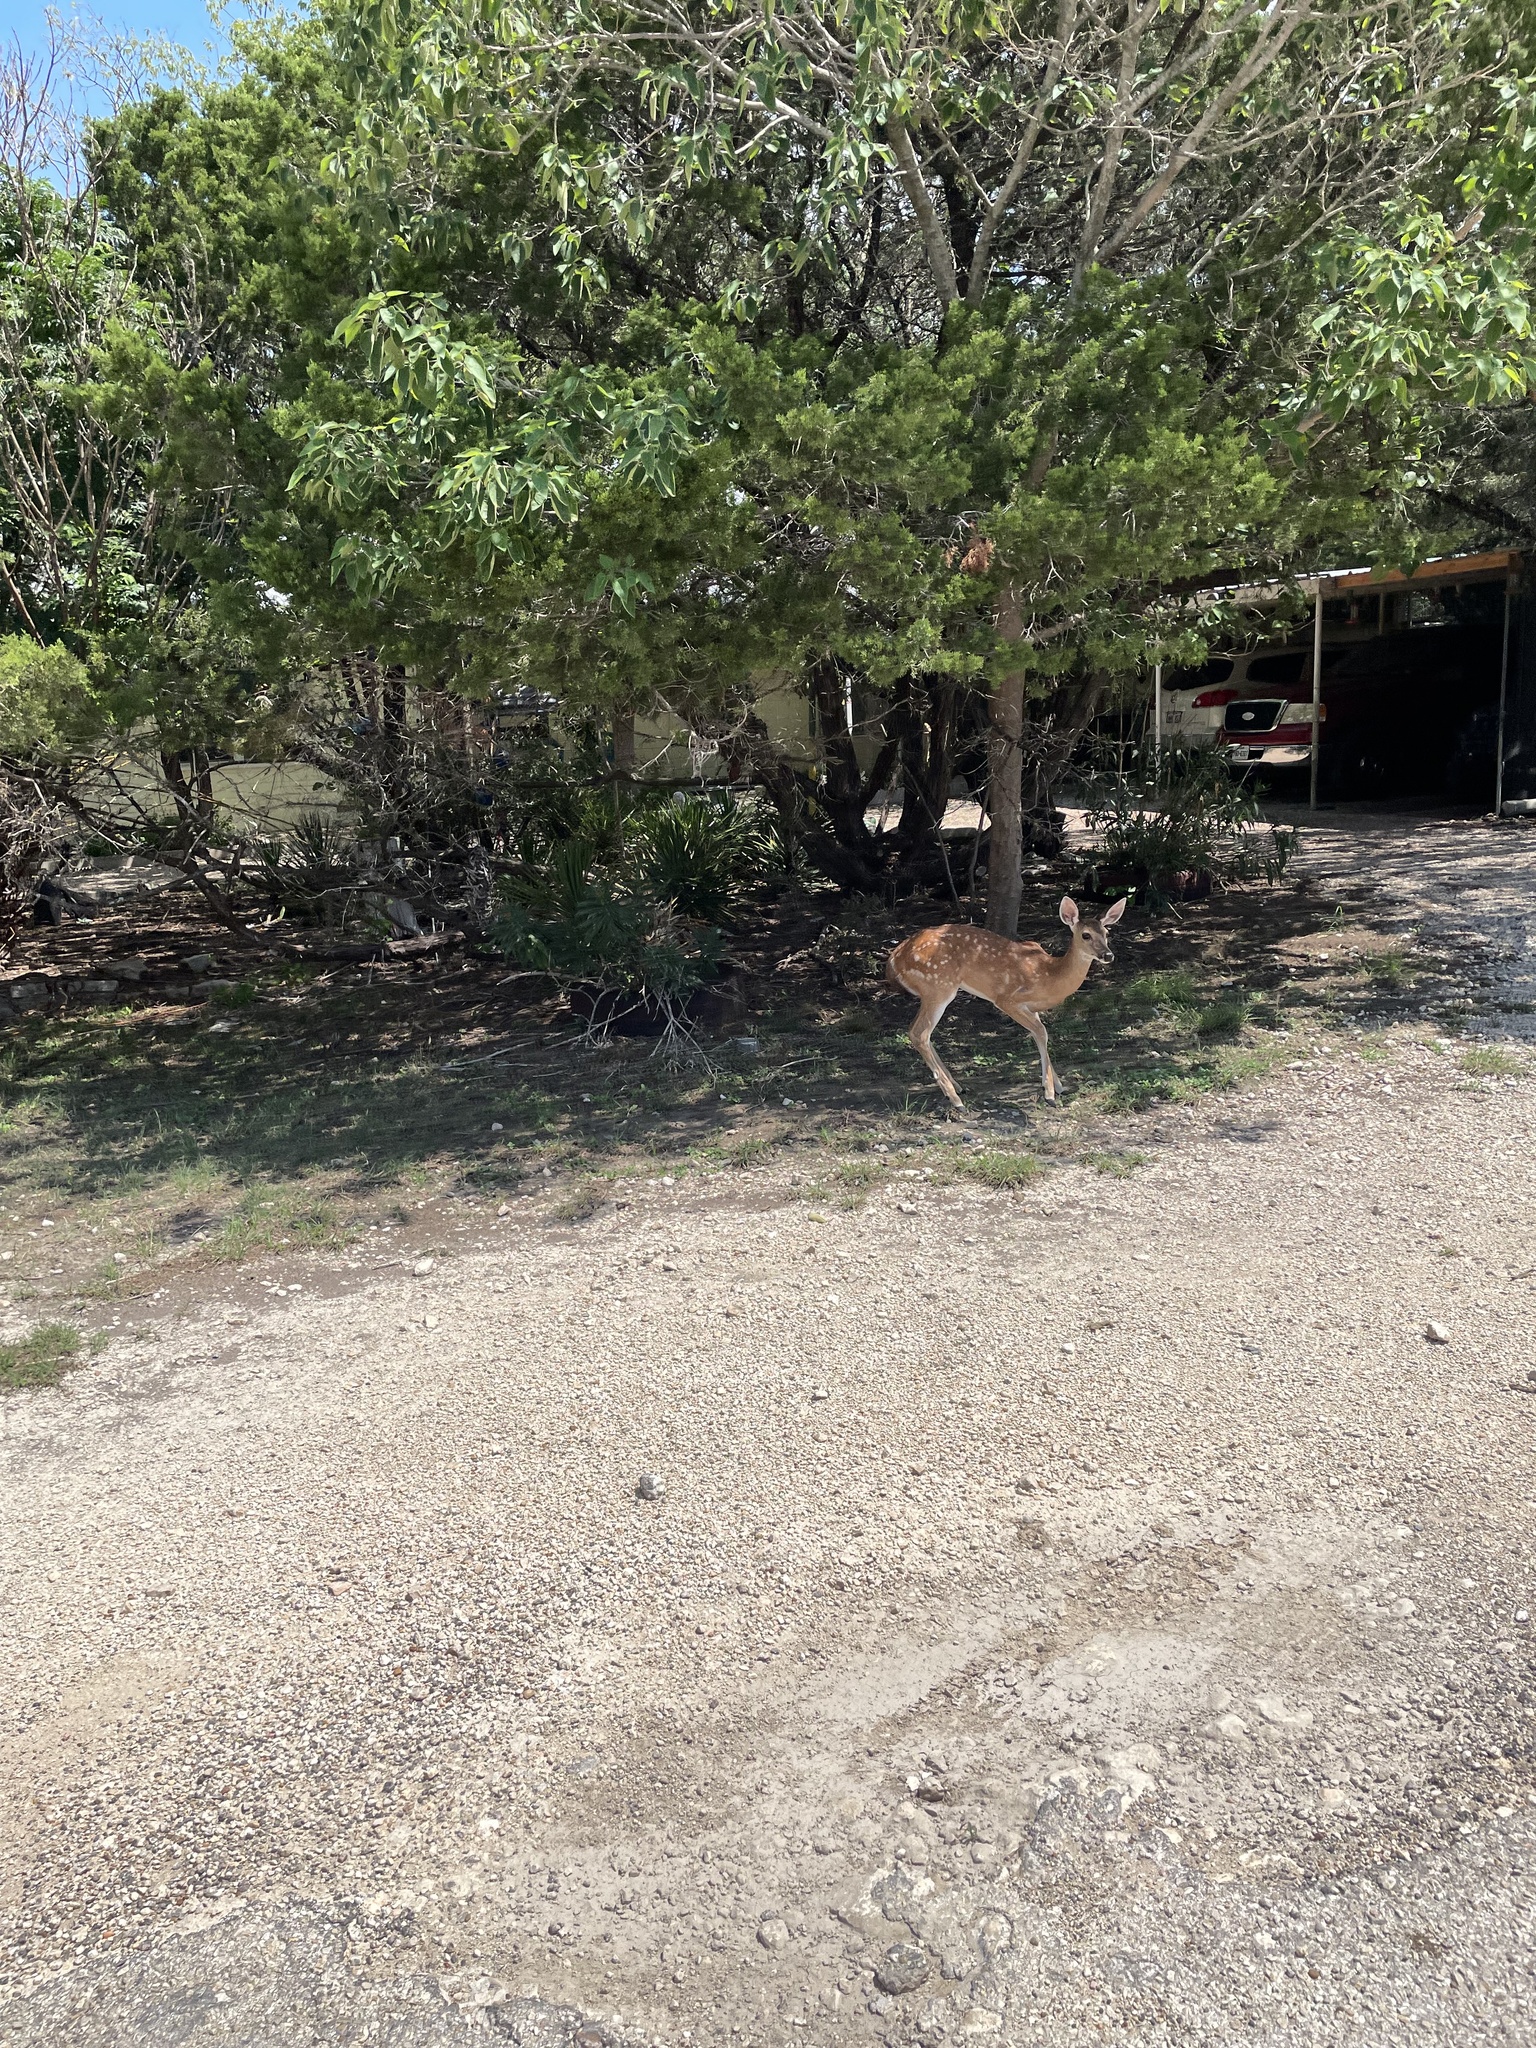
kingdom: Animalia
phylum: Chordata
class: Mammalia
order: Artiodactyla
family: Cervidae
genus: Odocoileus
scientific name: Odocoileus virginianus
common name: White-tailed deer
